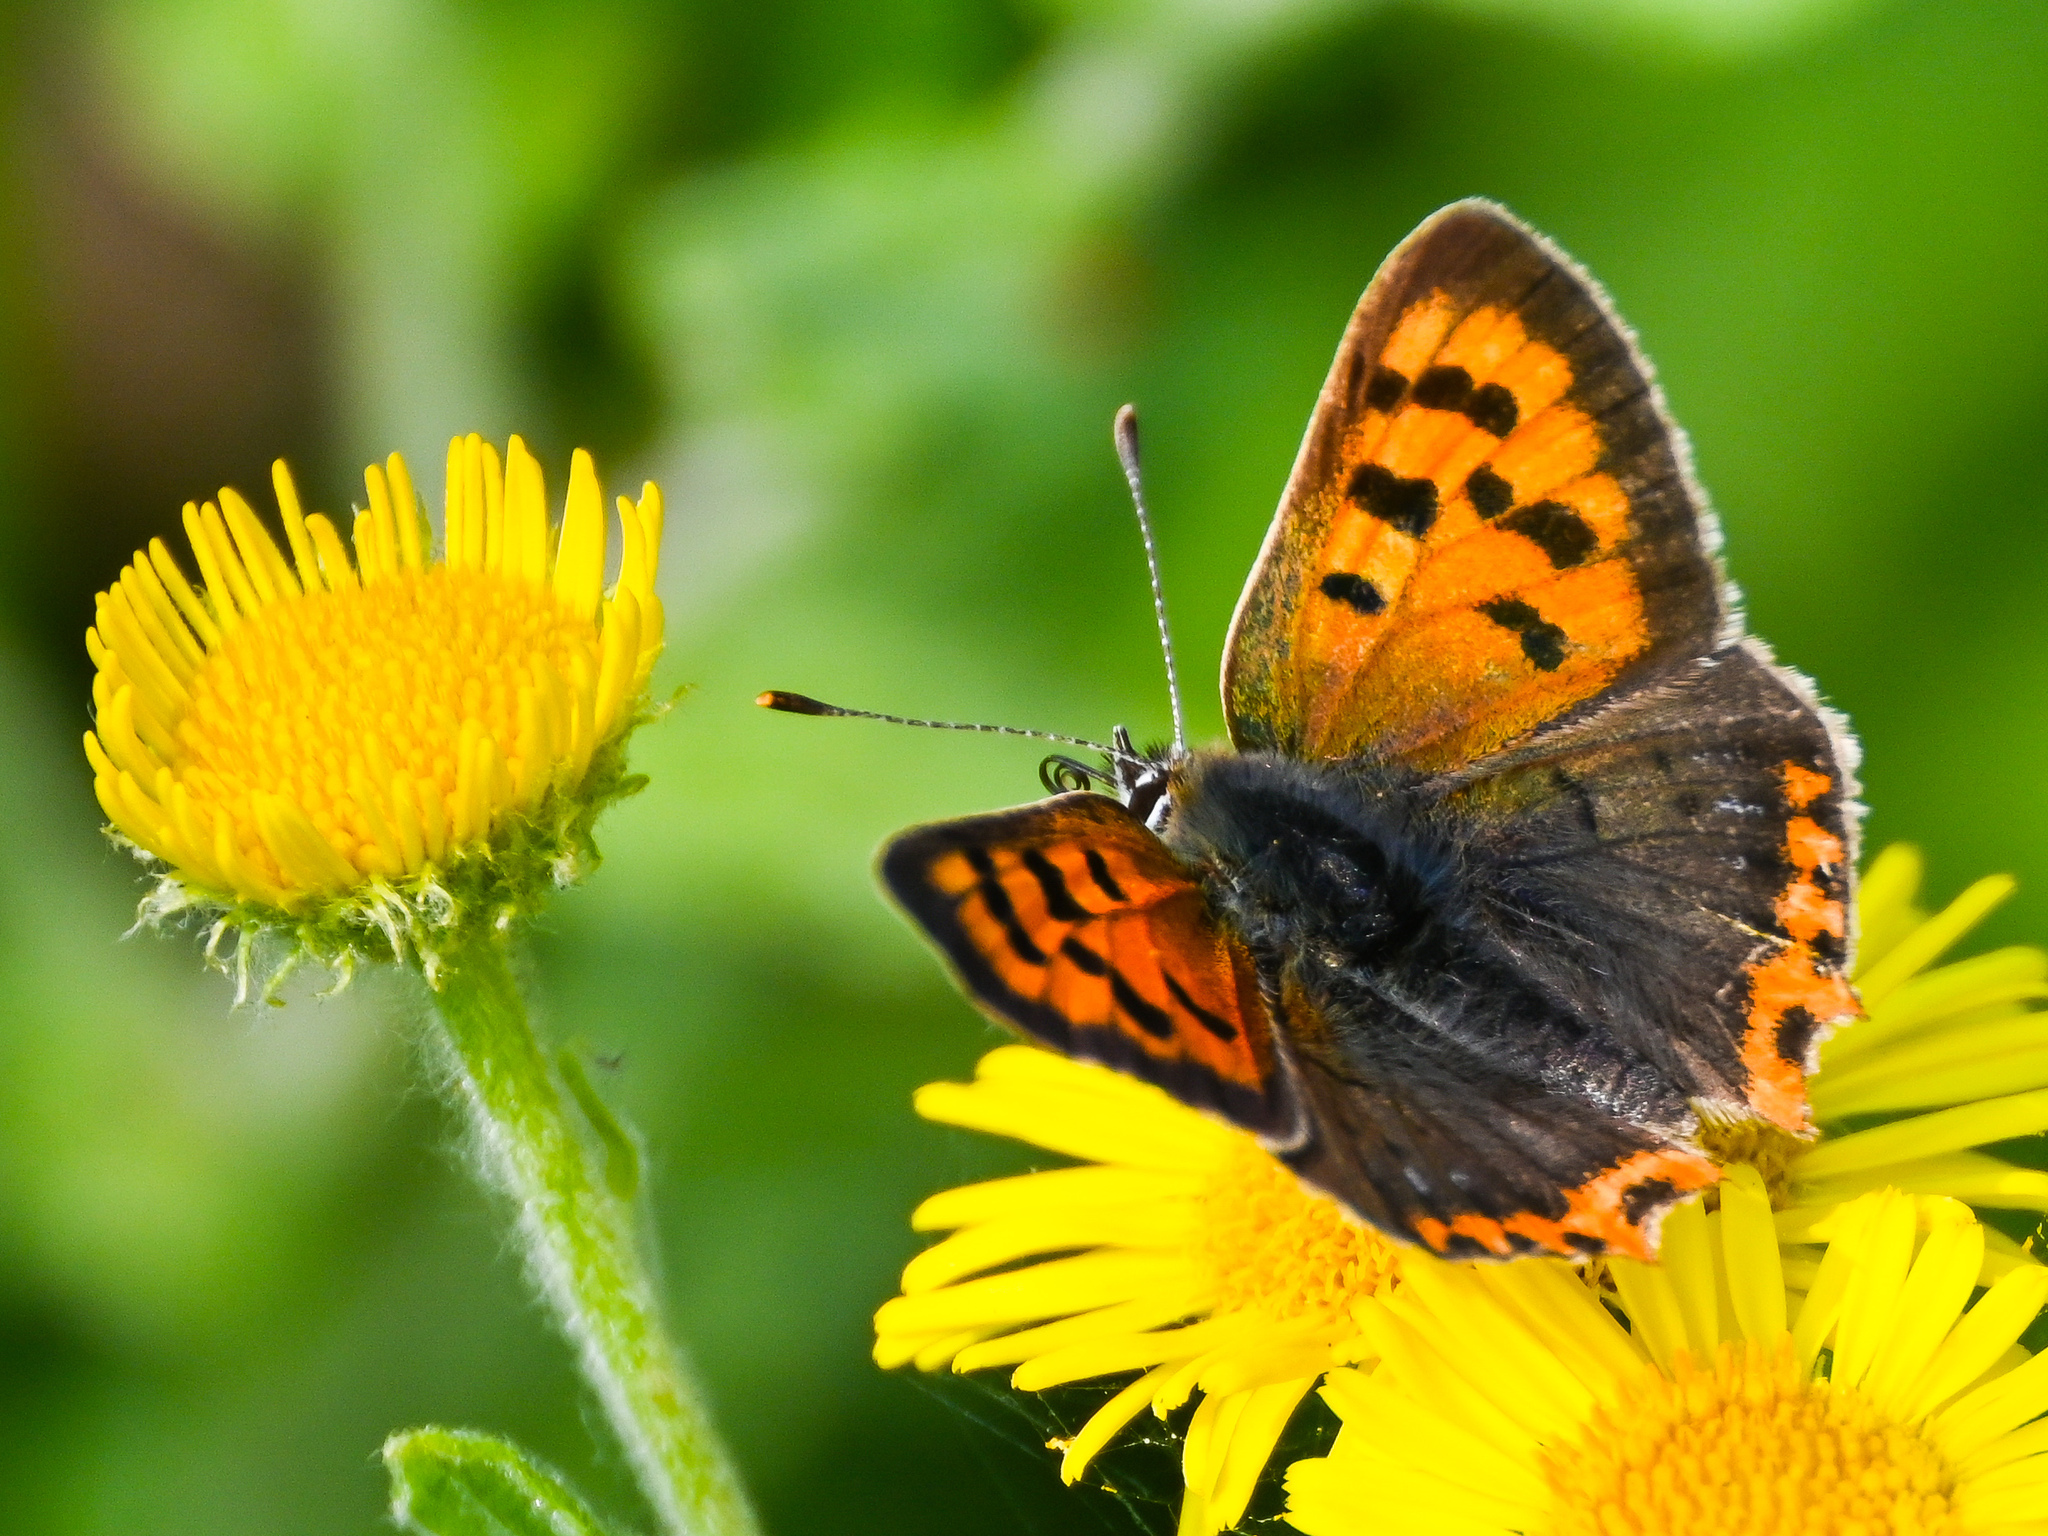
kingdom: Animalia
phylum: Arthropoda
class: Insecta
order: Lepidoptera
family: Lycaenidae
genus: Lycaena
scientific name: Lycaena phlaeas
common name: Small copper
